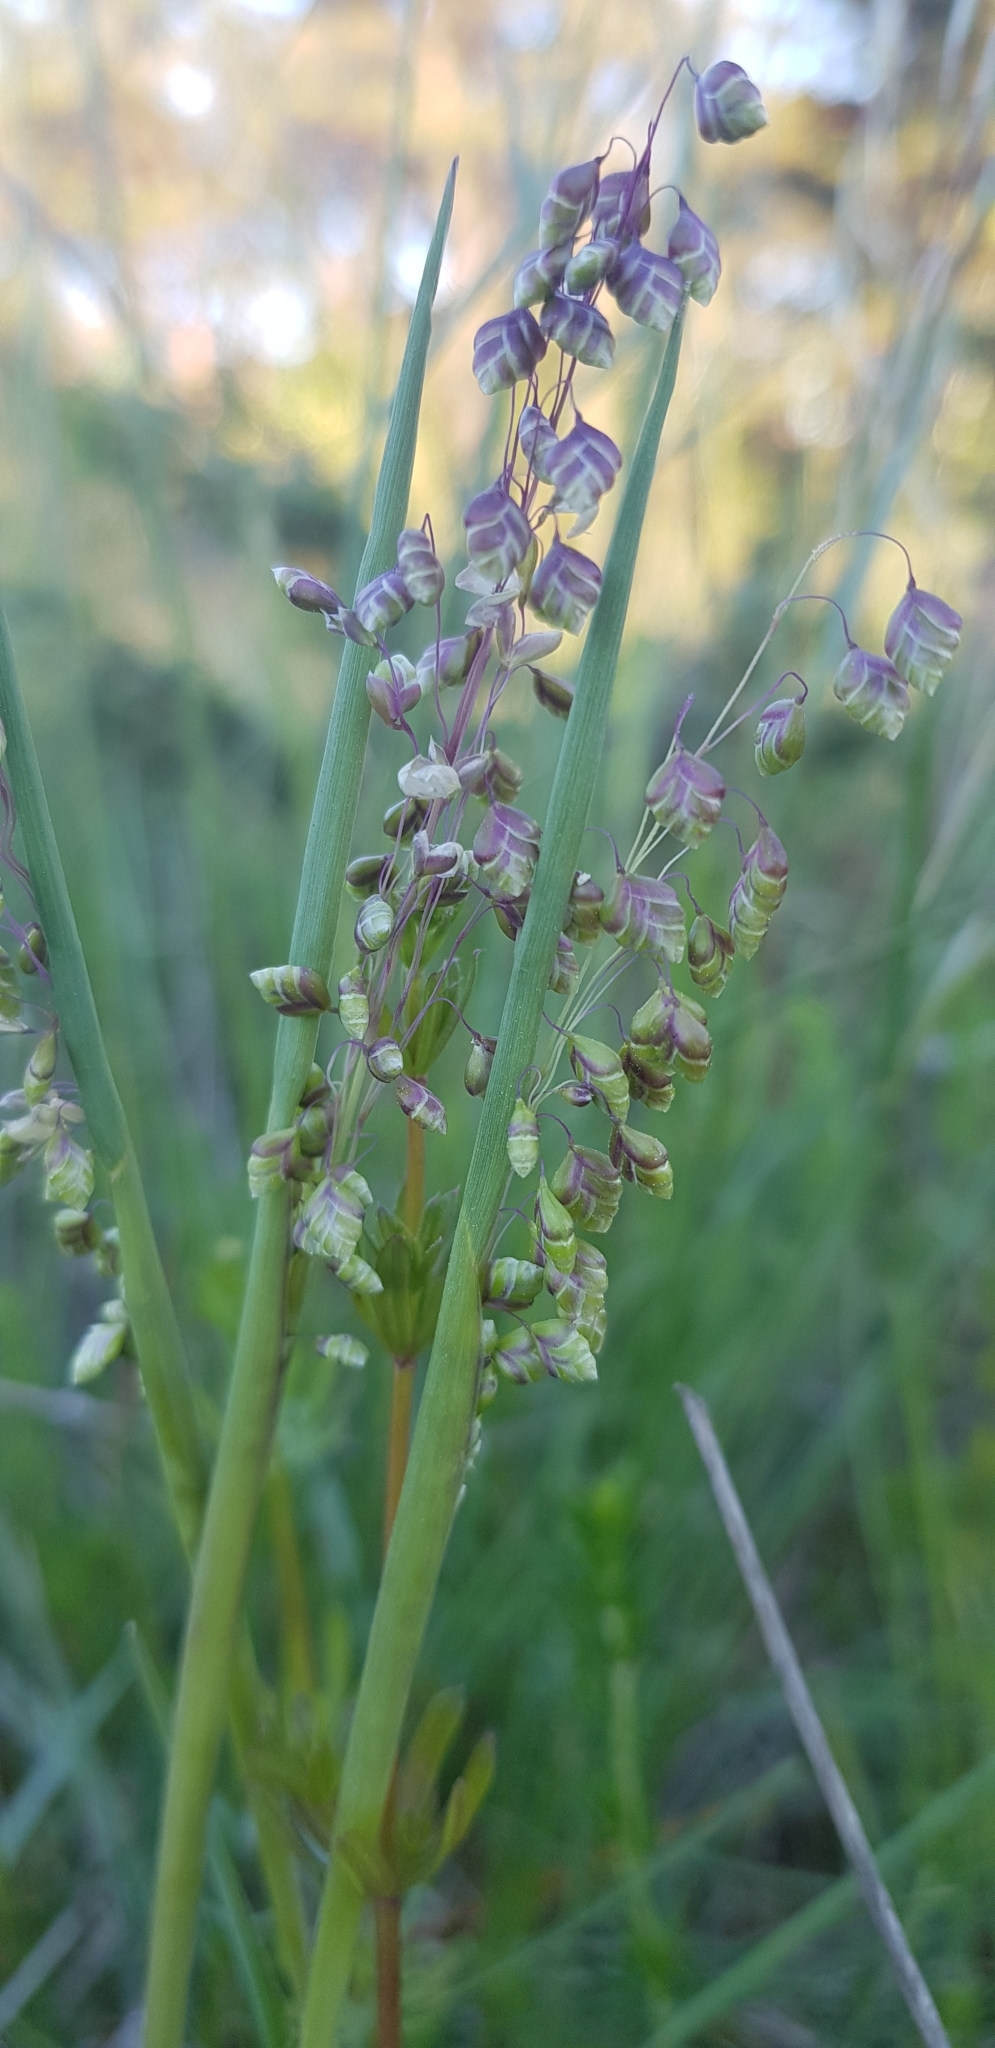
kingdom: Plantae
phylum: Tracheophyta
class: Liliopsida
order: Poales
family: Poaceae
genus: Briza
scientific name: Briza media
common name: Quaking grass
